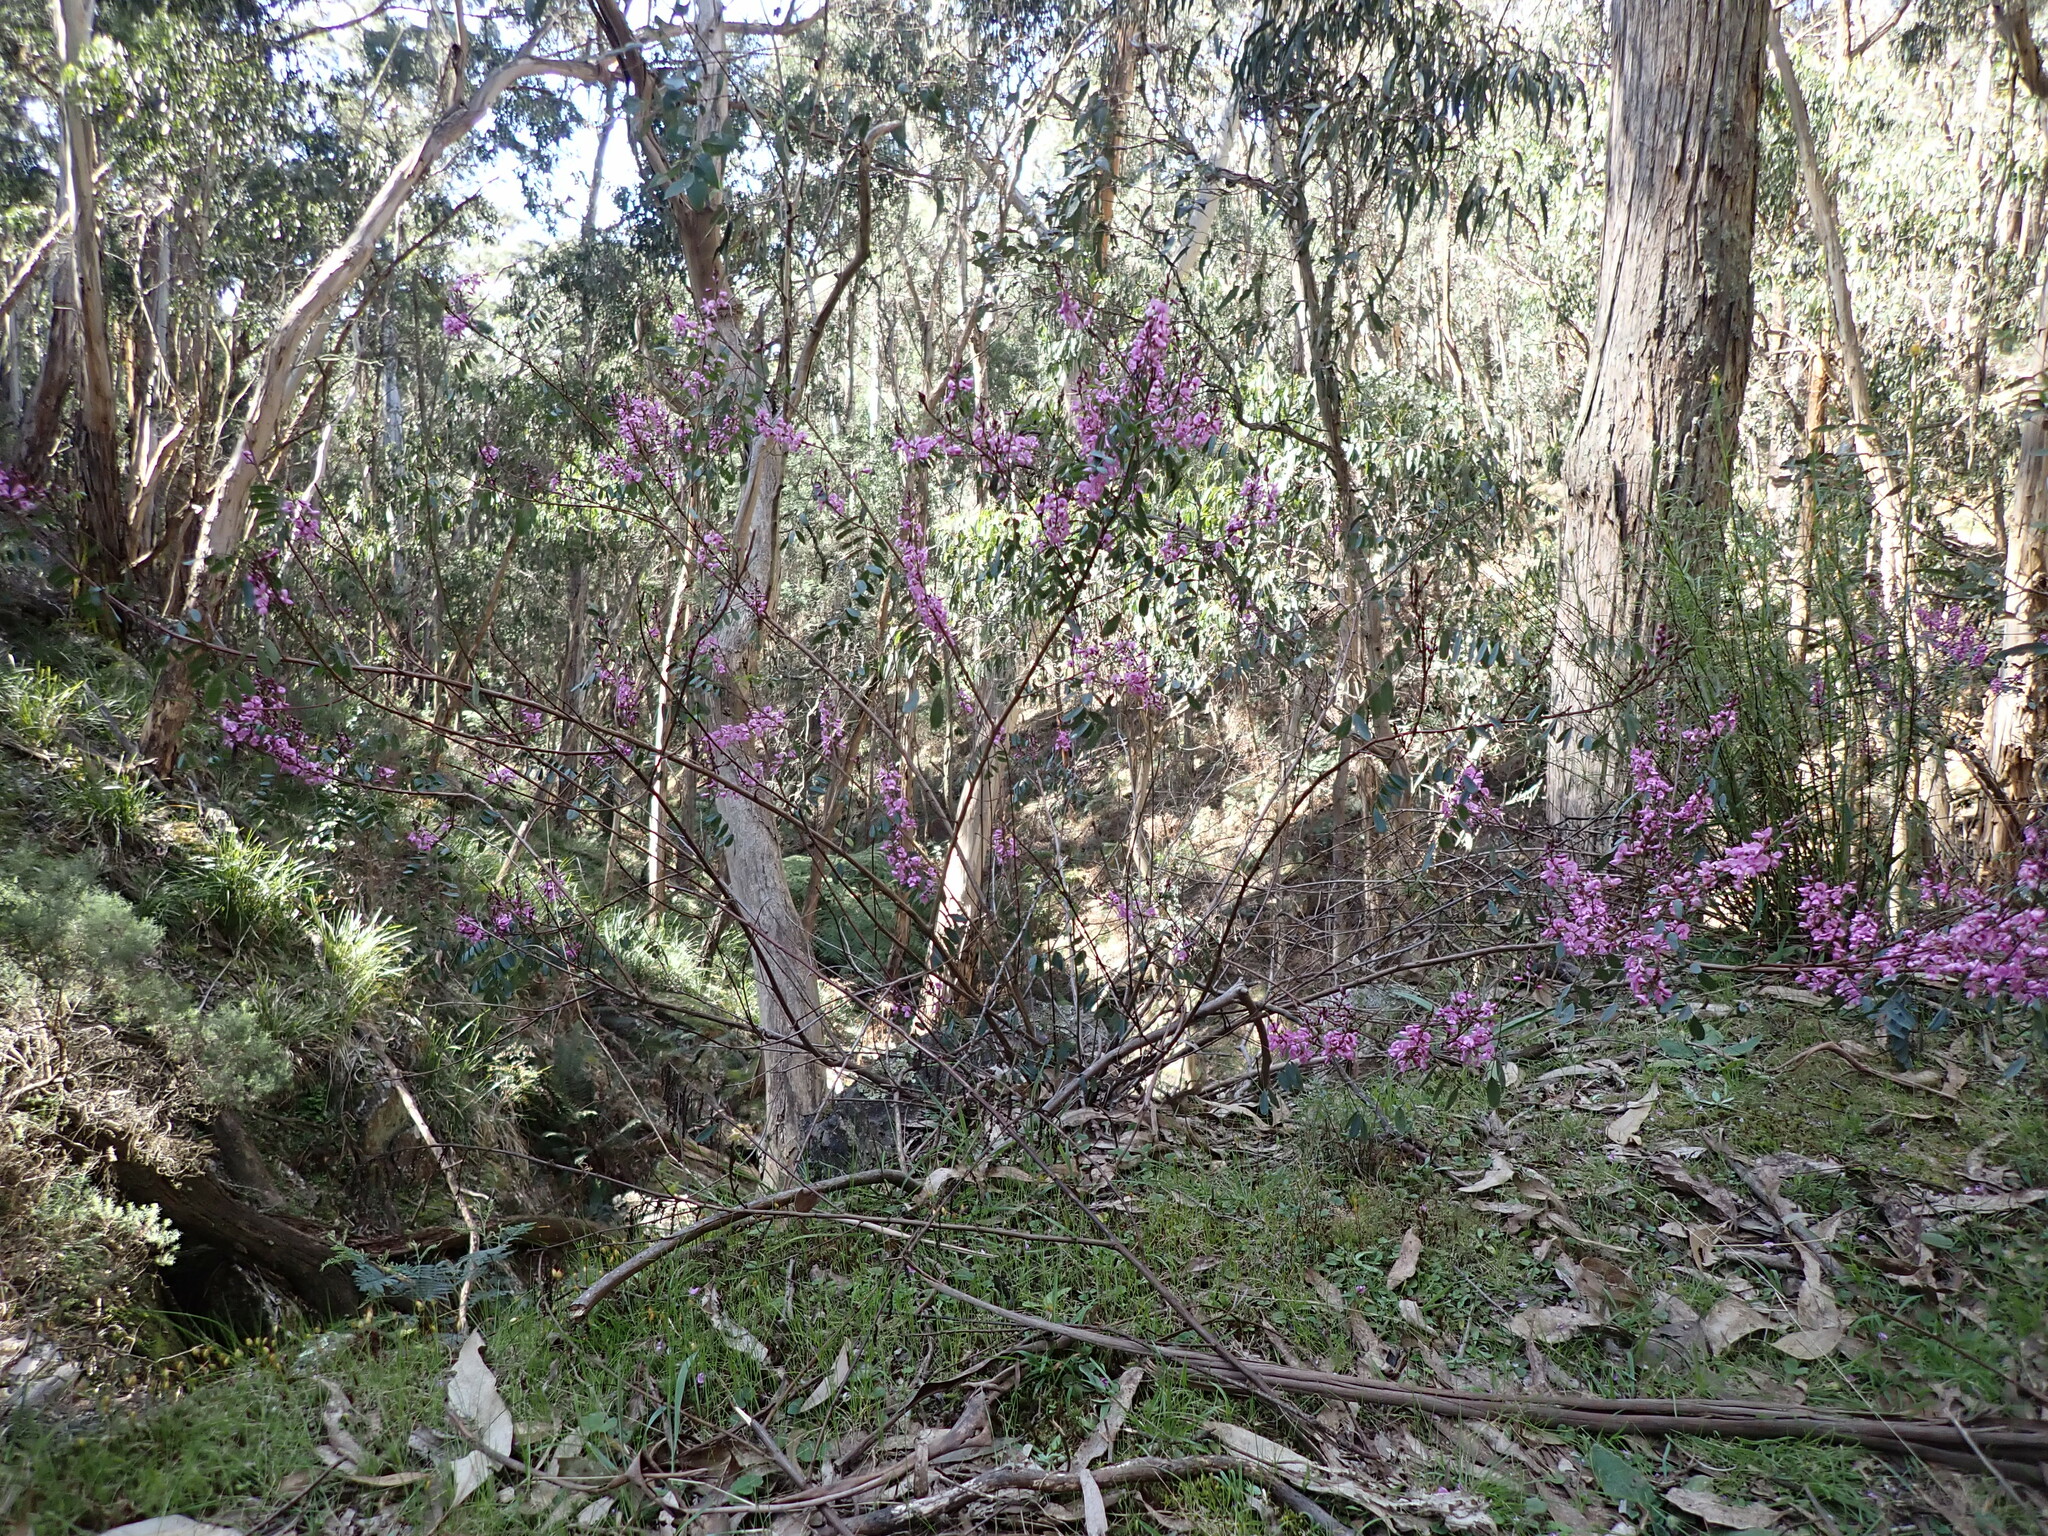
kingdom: Plantae
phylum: Tracheophyta
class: Magnoliopsida
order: Fabales
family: Fabaceae
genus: Indigofera
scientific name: Indigofera australis
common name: Australian indigo
